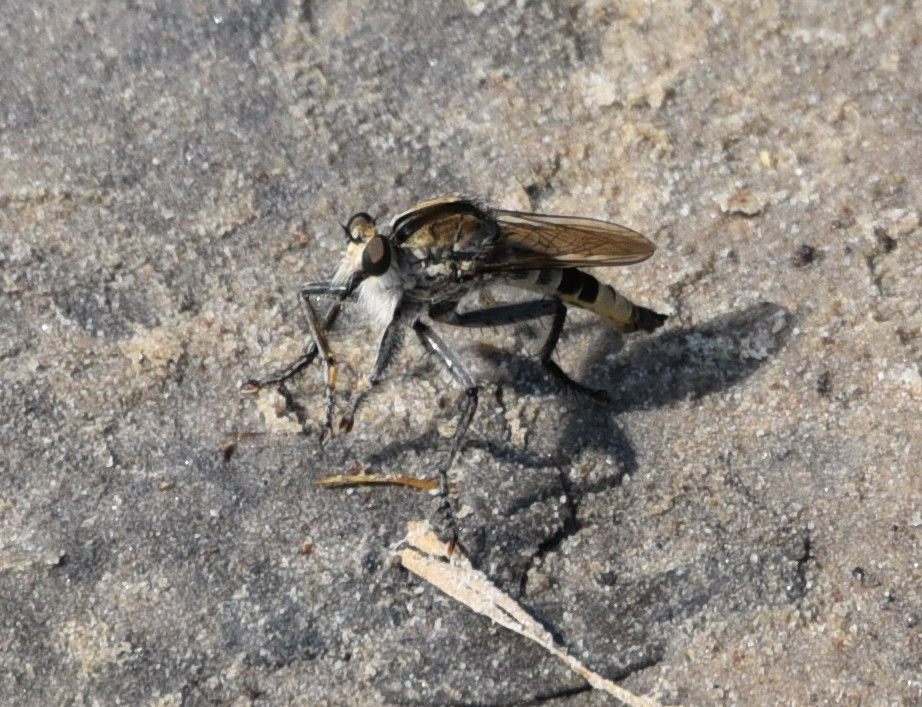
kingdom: Animalia
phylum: Arthropoda
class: Insecta
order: Diptera
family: Asilidae
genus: Triorla
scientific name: Triorla interrupta
